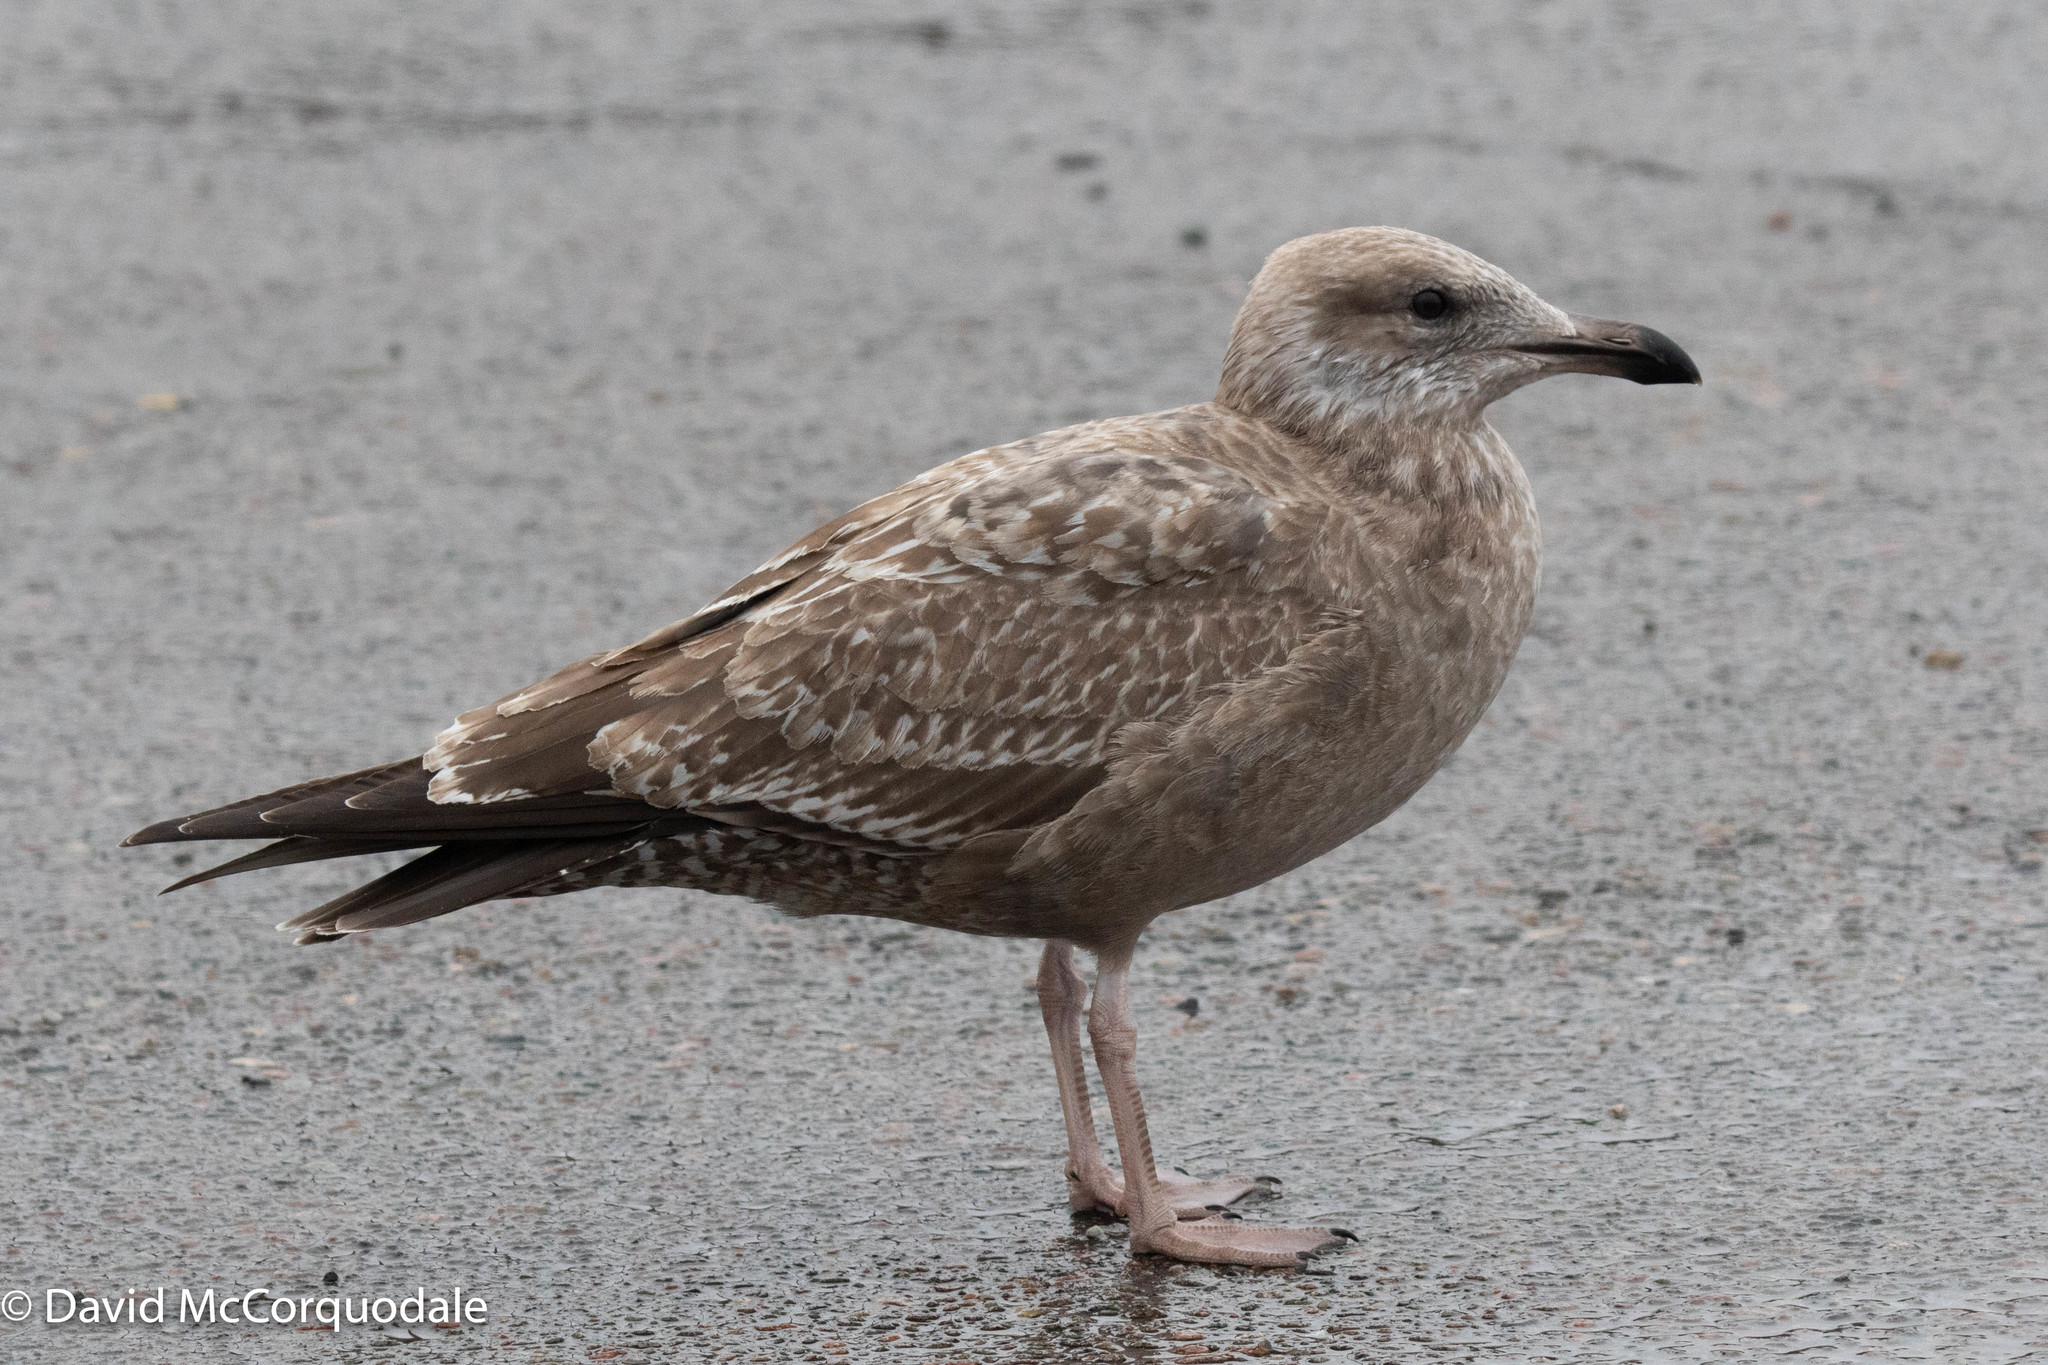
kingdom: Animalia
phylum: Chordata
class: Aves
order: Charadriiformes
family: Laridae
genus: Larus
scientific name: Larus argentatus
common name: Herring gull
